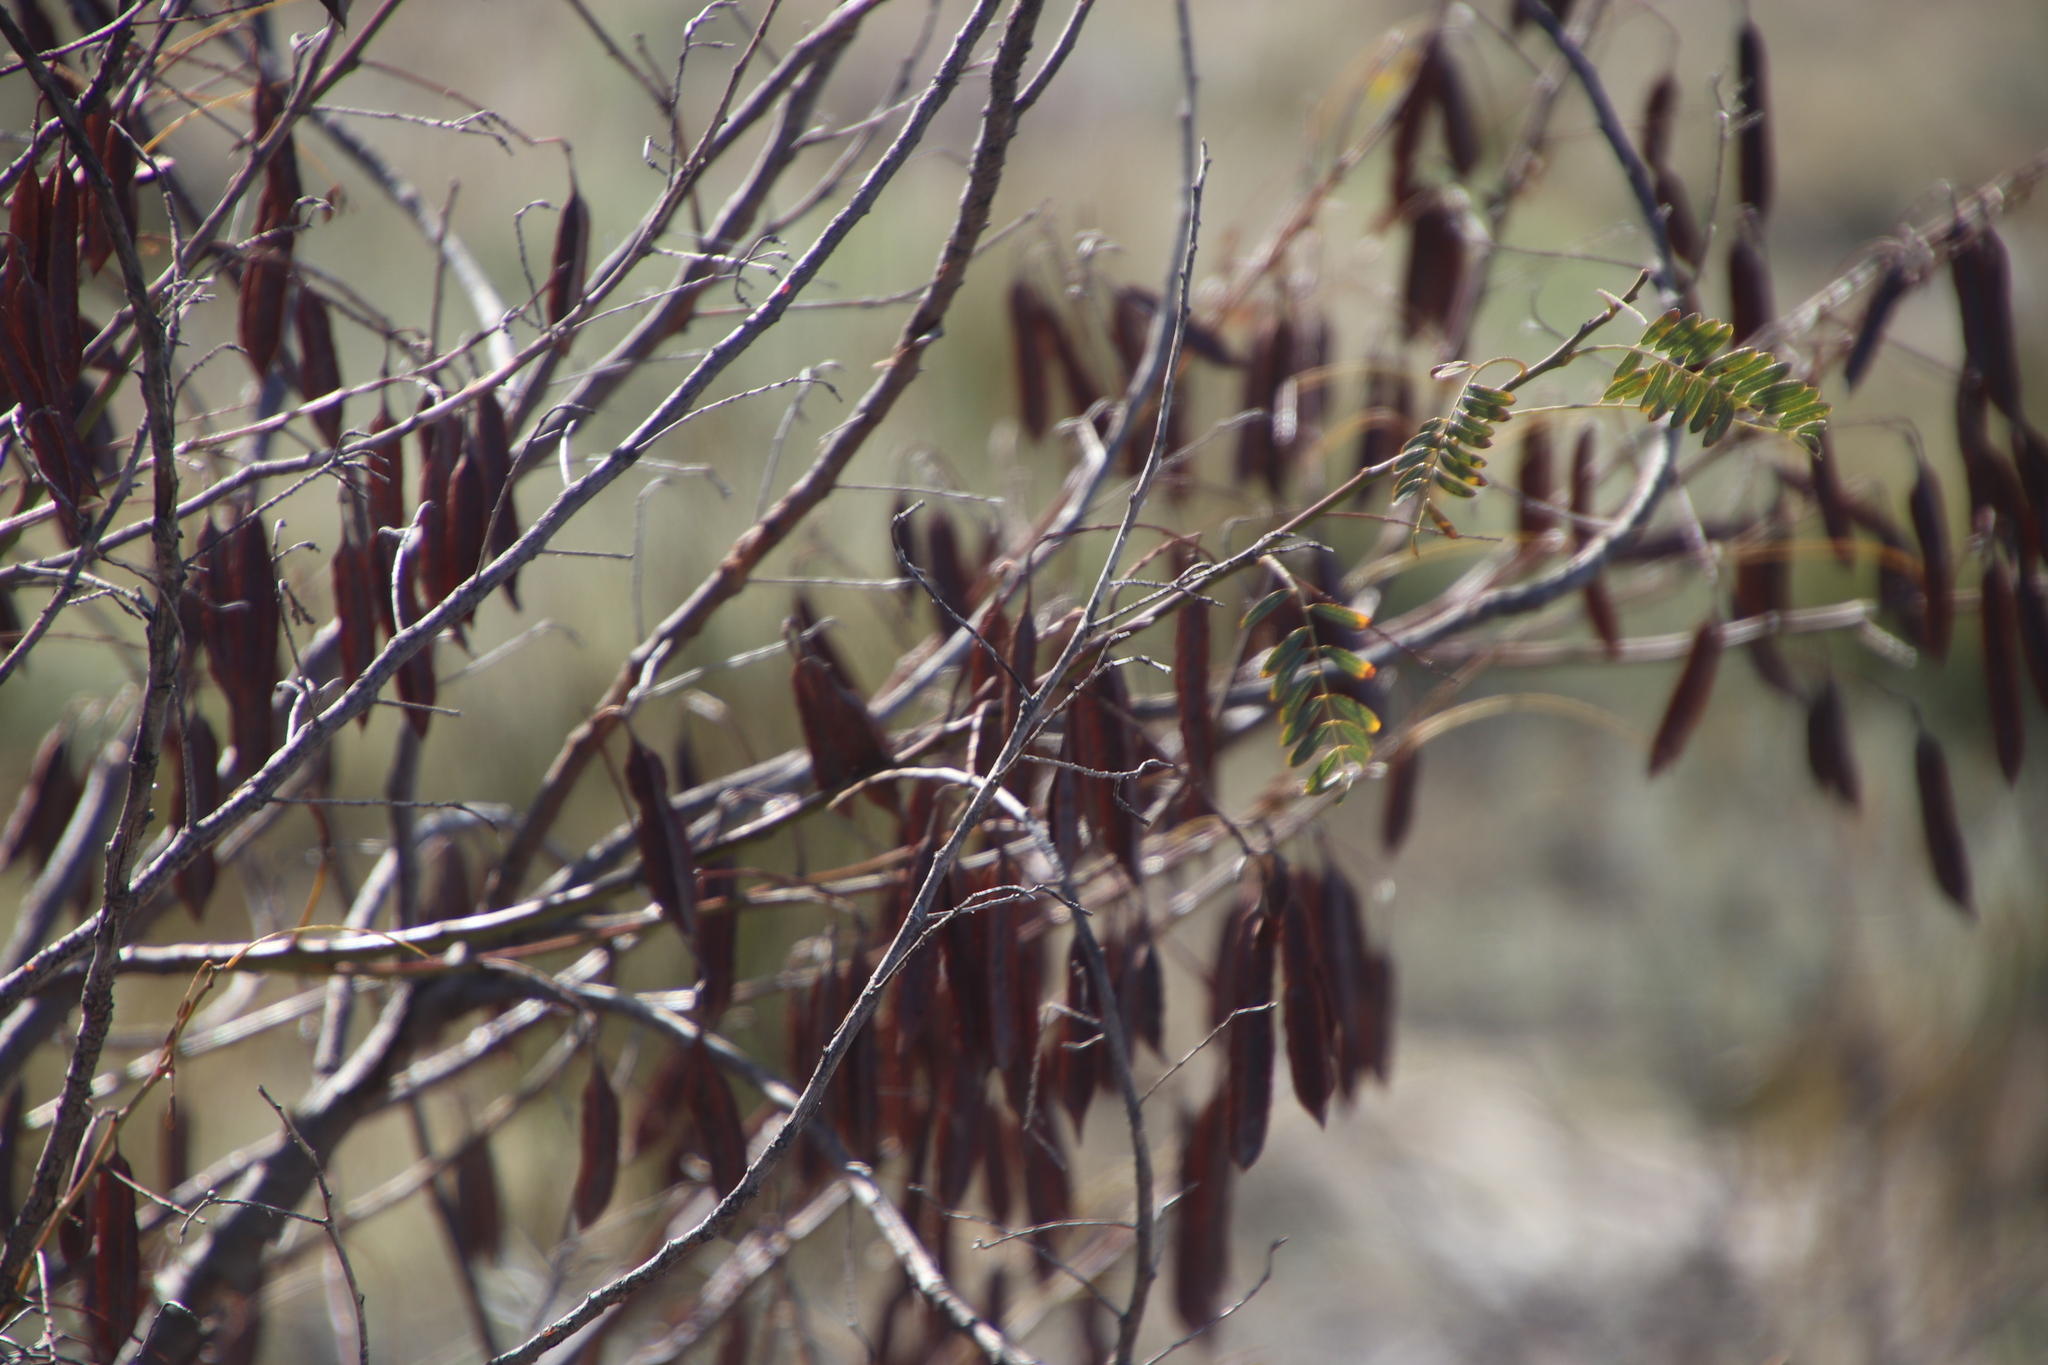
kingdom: Plantae
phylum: Tracheophyta
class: Magnoliopsida
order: Fabales
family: Fabaceae
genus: Sesbania
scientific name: Sesbania punicea
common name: Rattlebox
